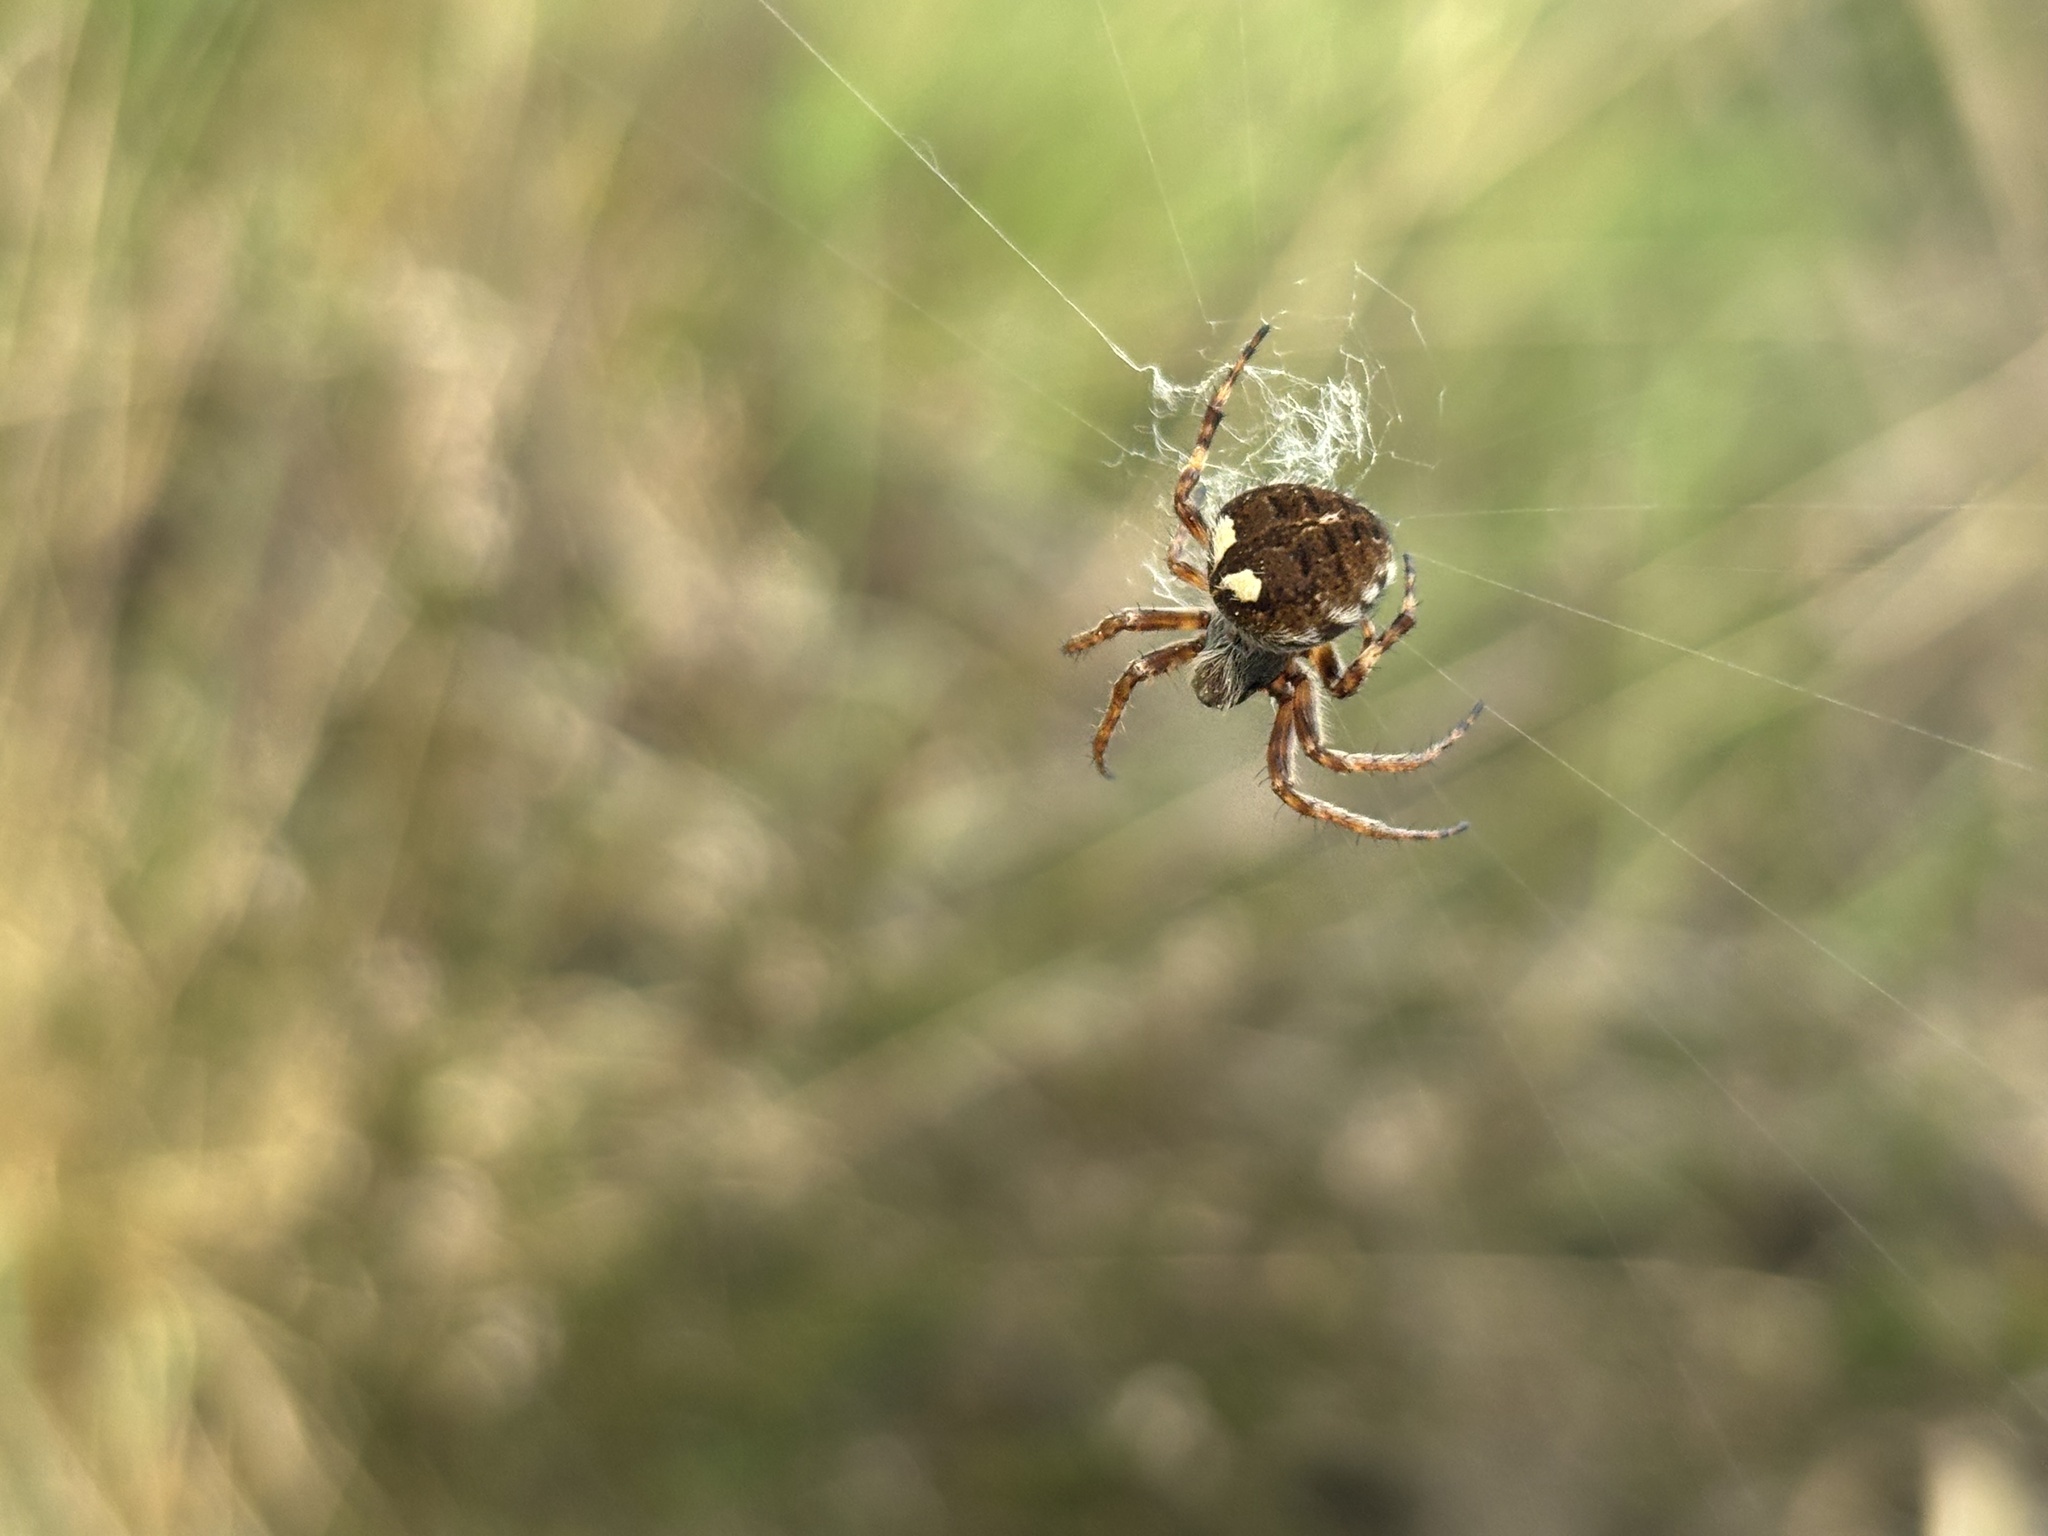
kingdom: Animalia
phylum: Arthropoda
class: Arachnida
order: Araneae
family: Araneidae
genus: Agalenatea
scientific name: Agalenatea redii
